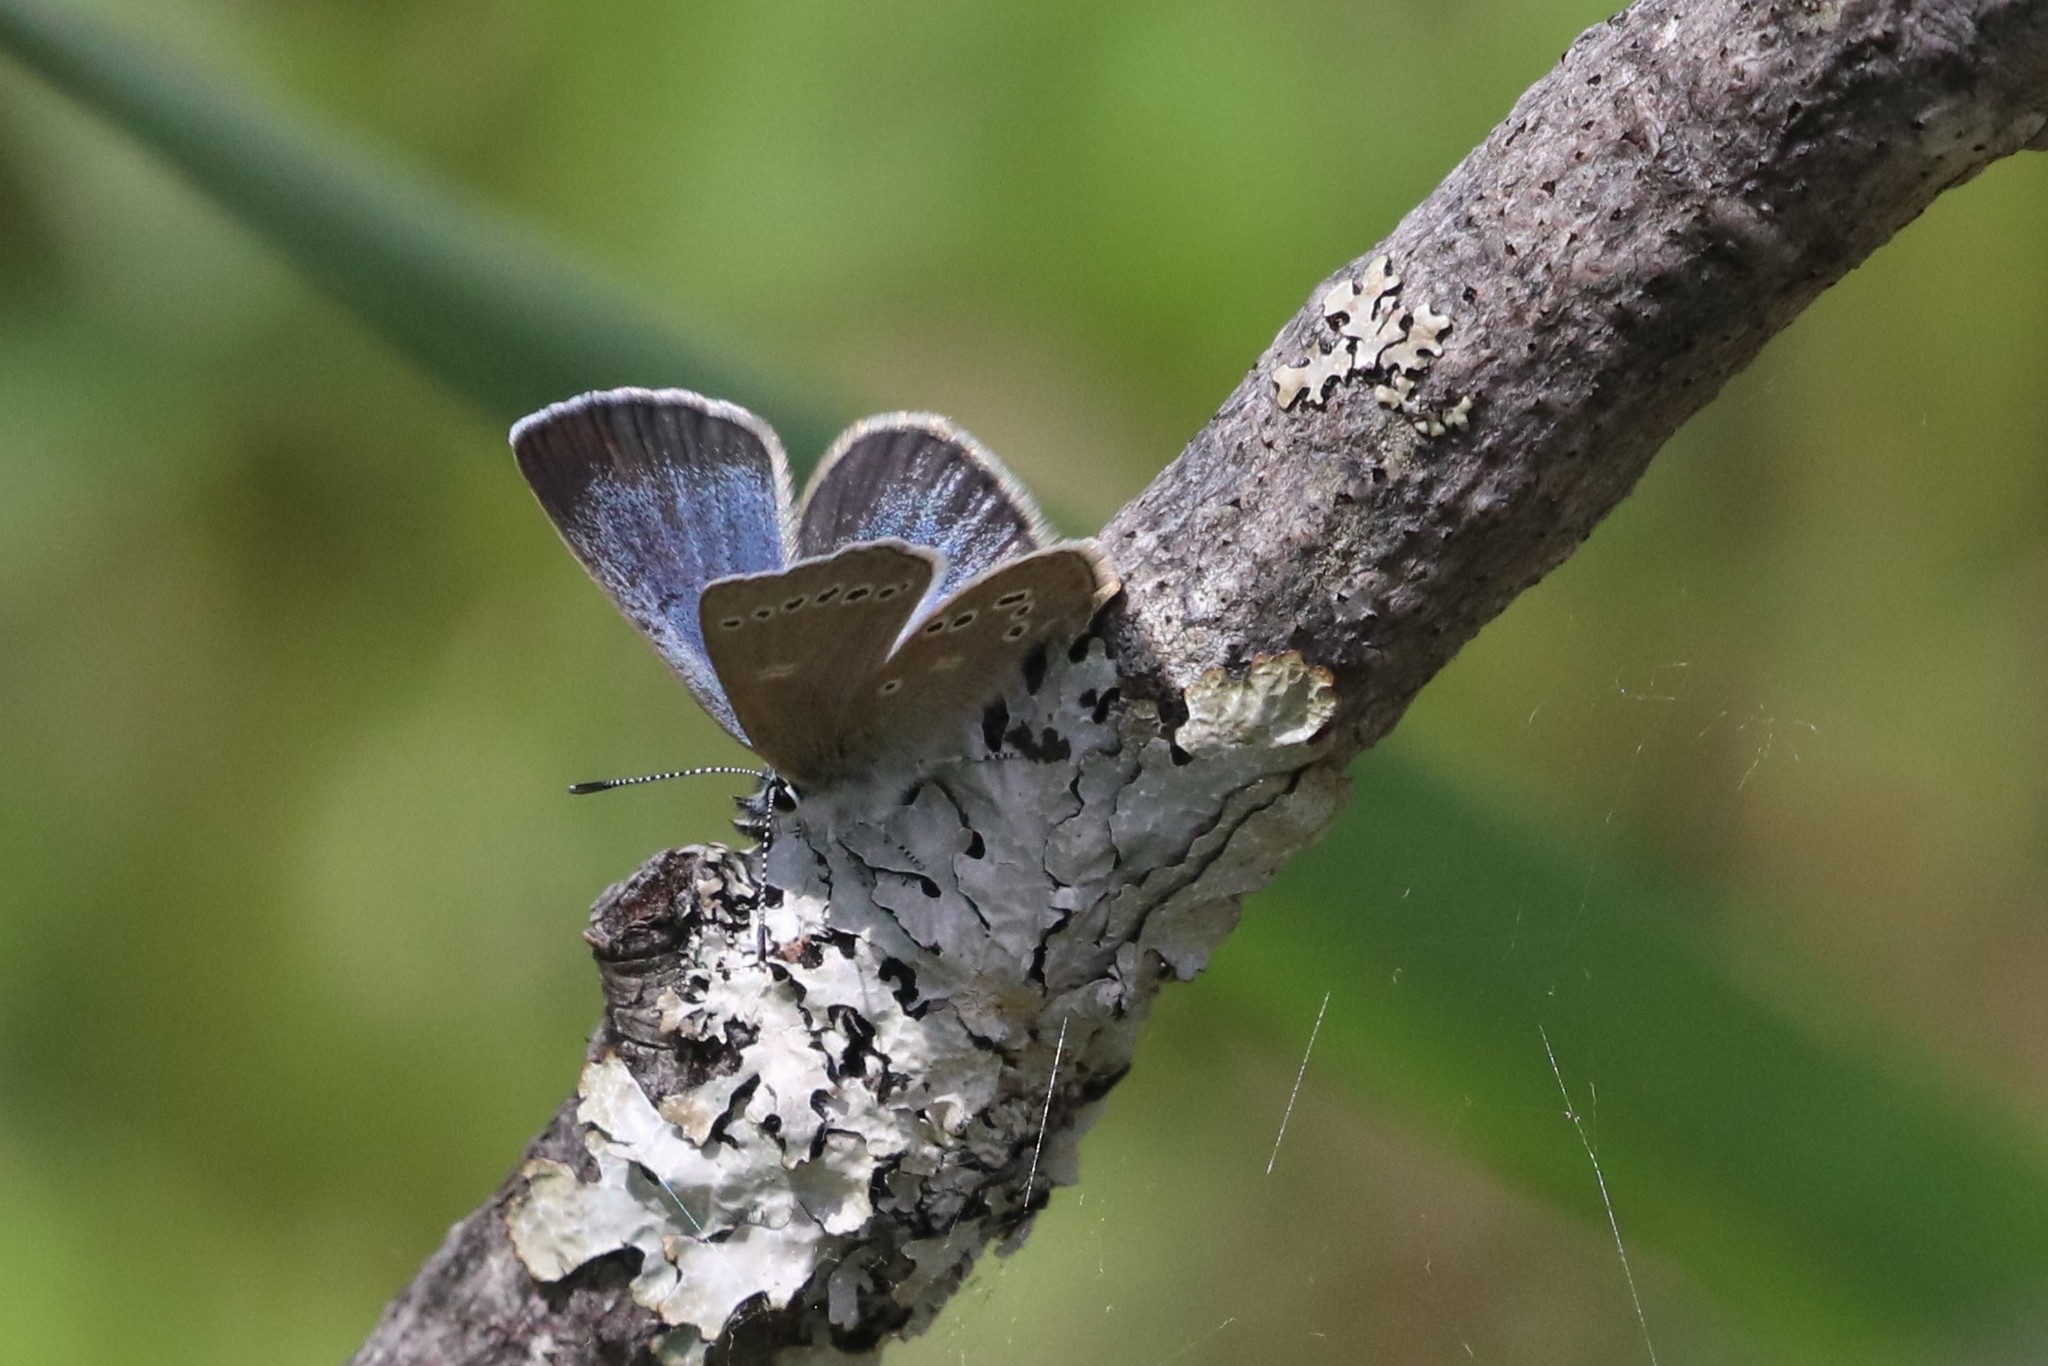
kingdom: Animalia
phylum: Arthropoda
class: Insecta
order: Lepidoptera
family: Lycaenidae
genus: Glaucopsyche
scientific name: Glaucopsyche lygdamus
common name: Silvery blue
